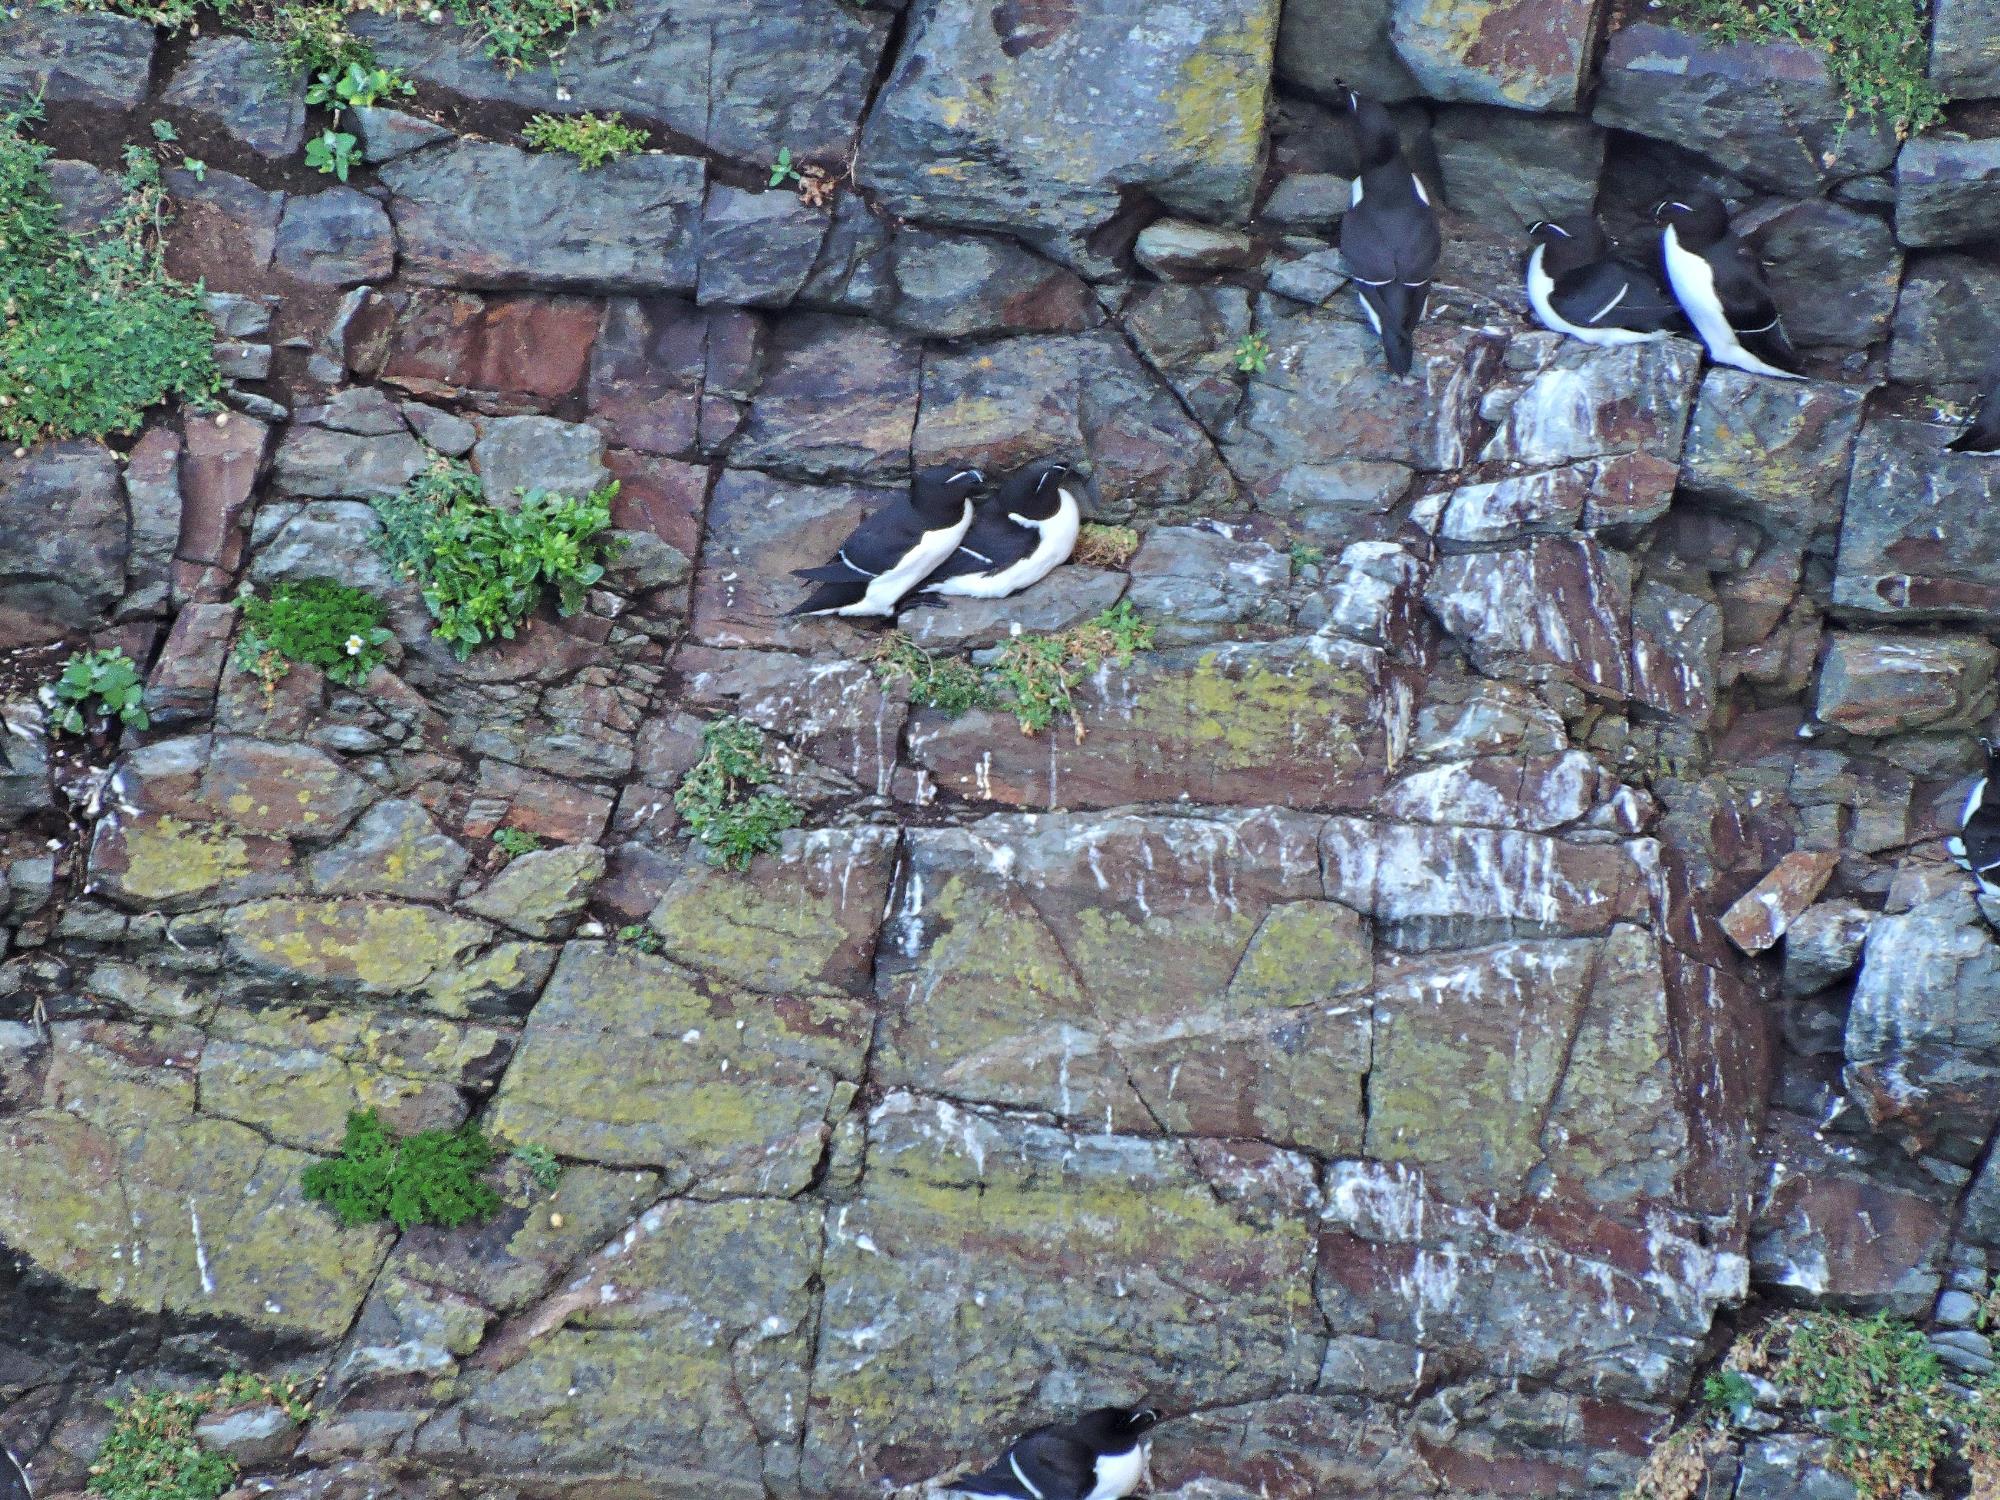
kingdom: Animalia
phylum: Chordata
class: Aves
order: Charadriiformes
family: Alcidae
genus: Alca
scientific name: Alca torda
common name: Razorbill
